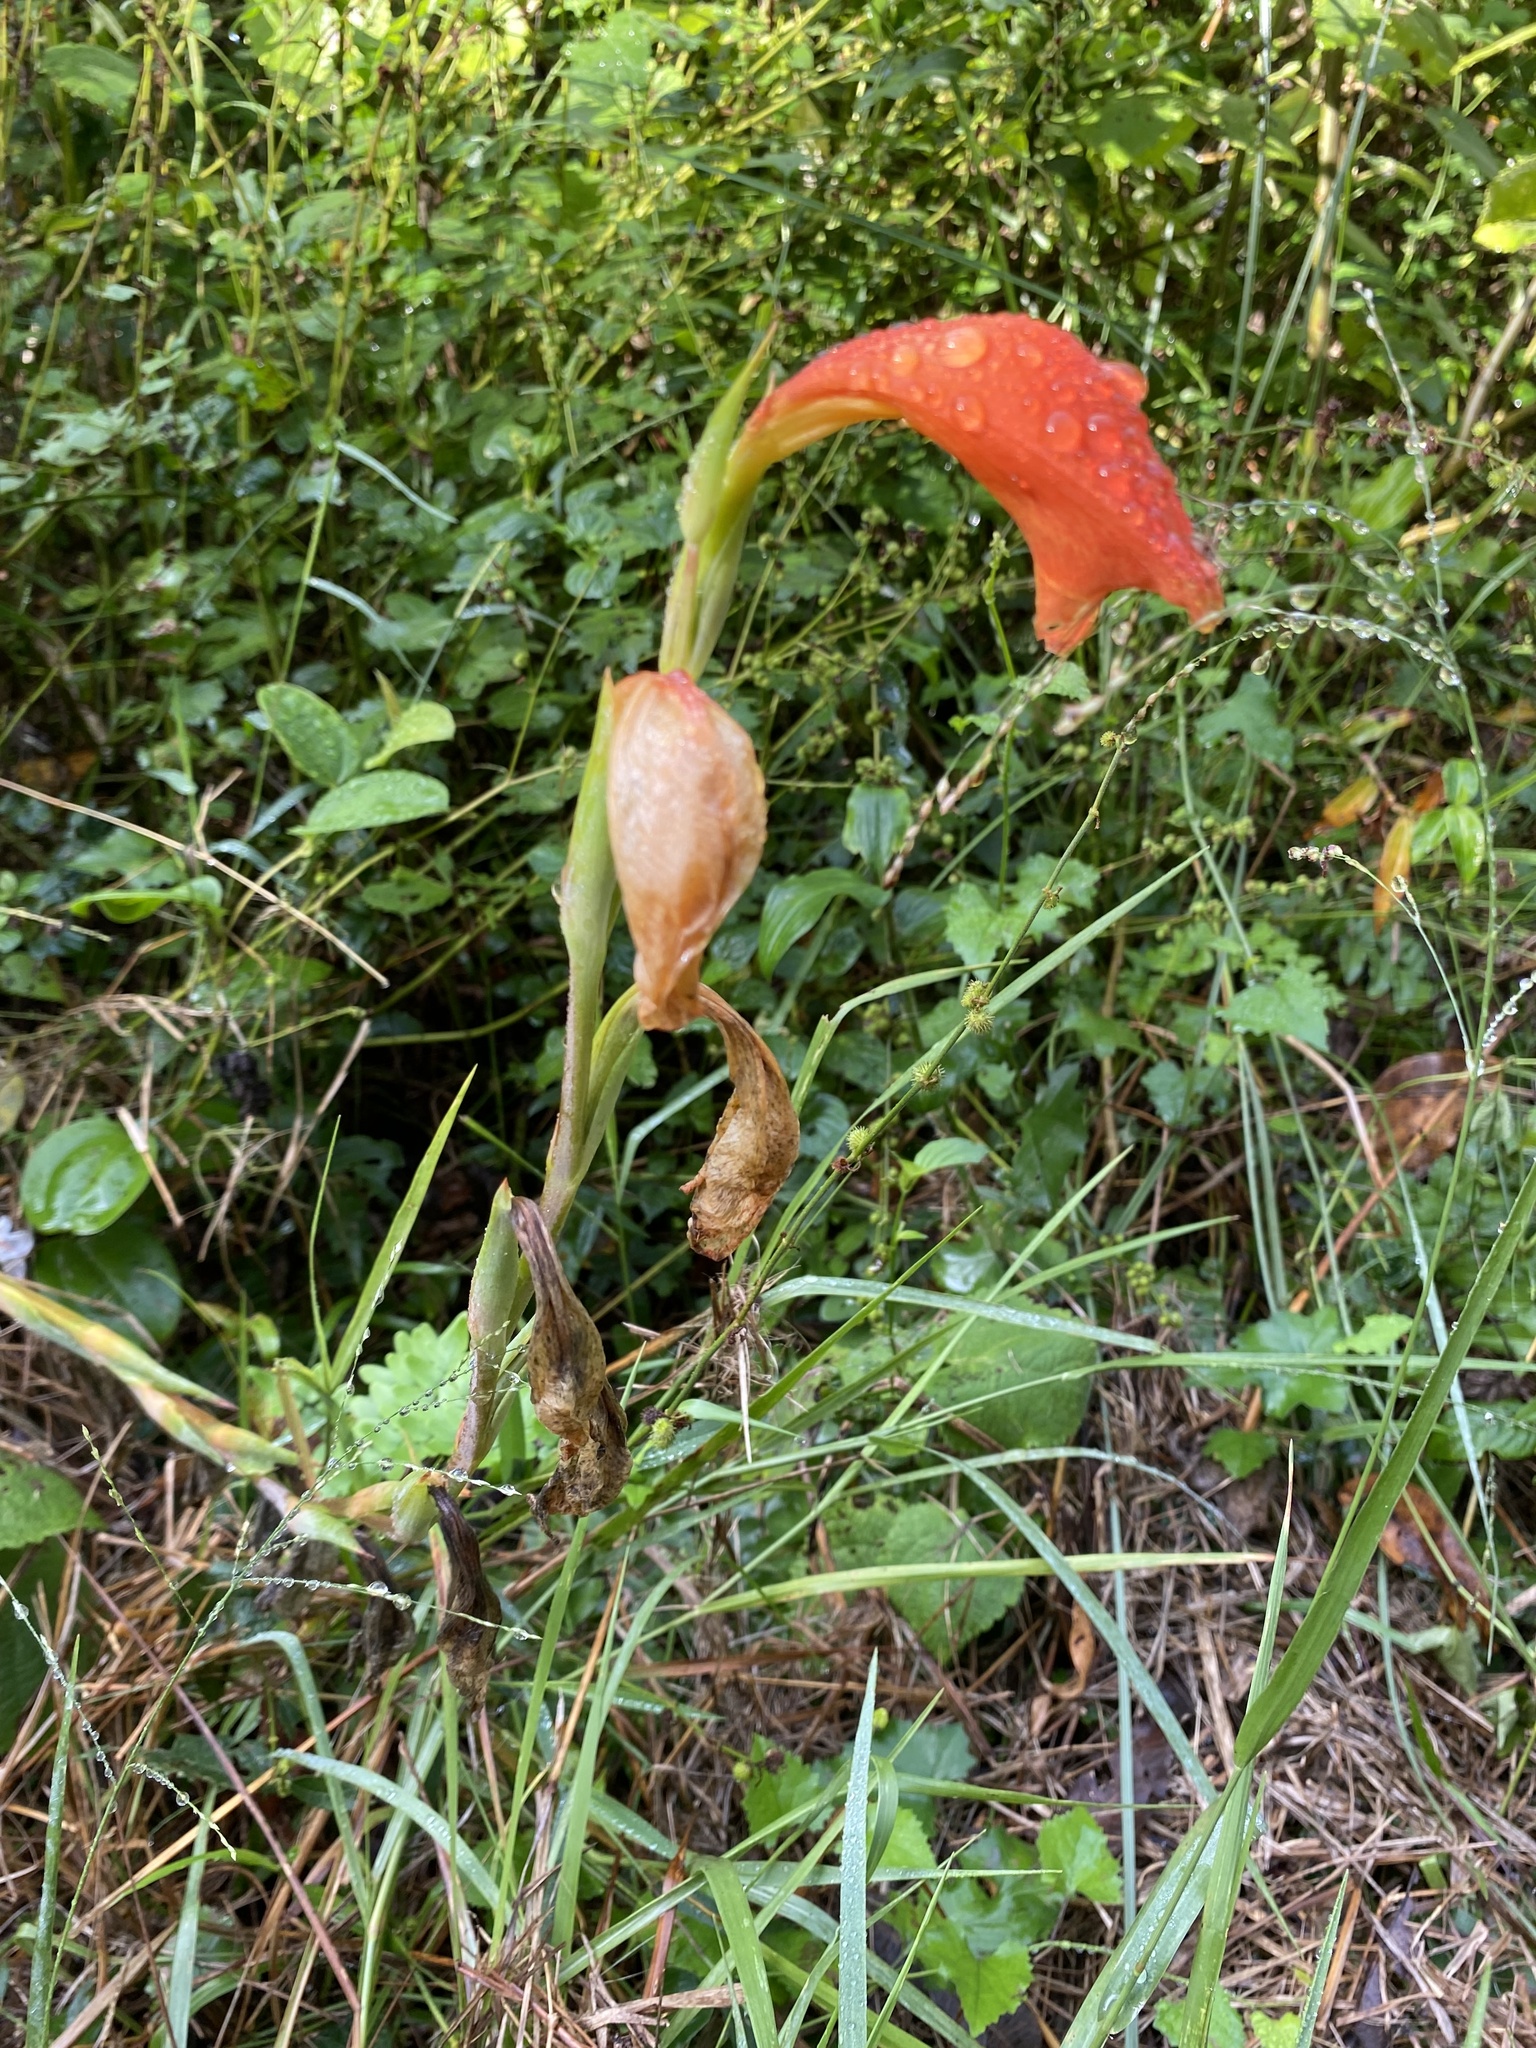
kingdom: Plantae
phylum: Tracheophyta
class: Liliopsida
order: Asparagales
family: Iridaceae
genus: Gladiolus
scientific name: Gladiolus dalenii
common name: Cornflag
